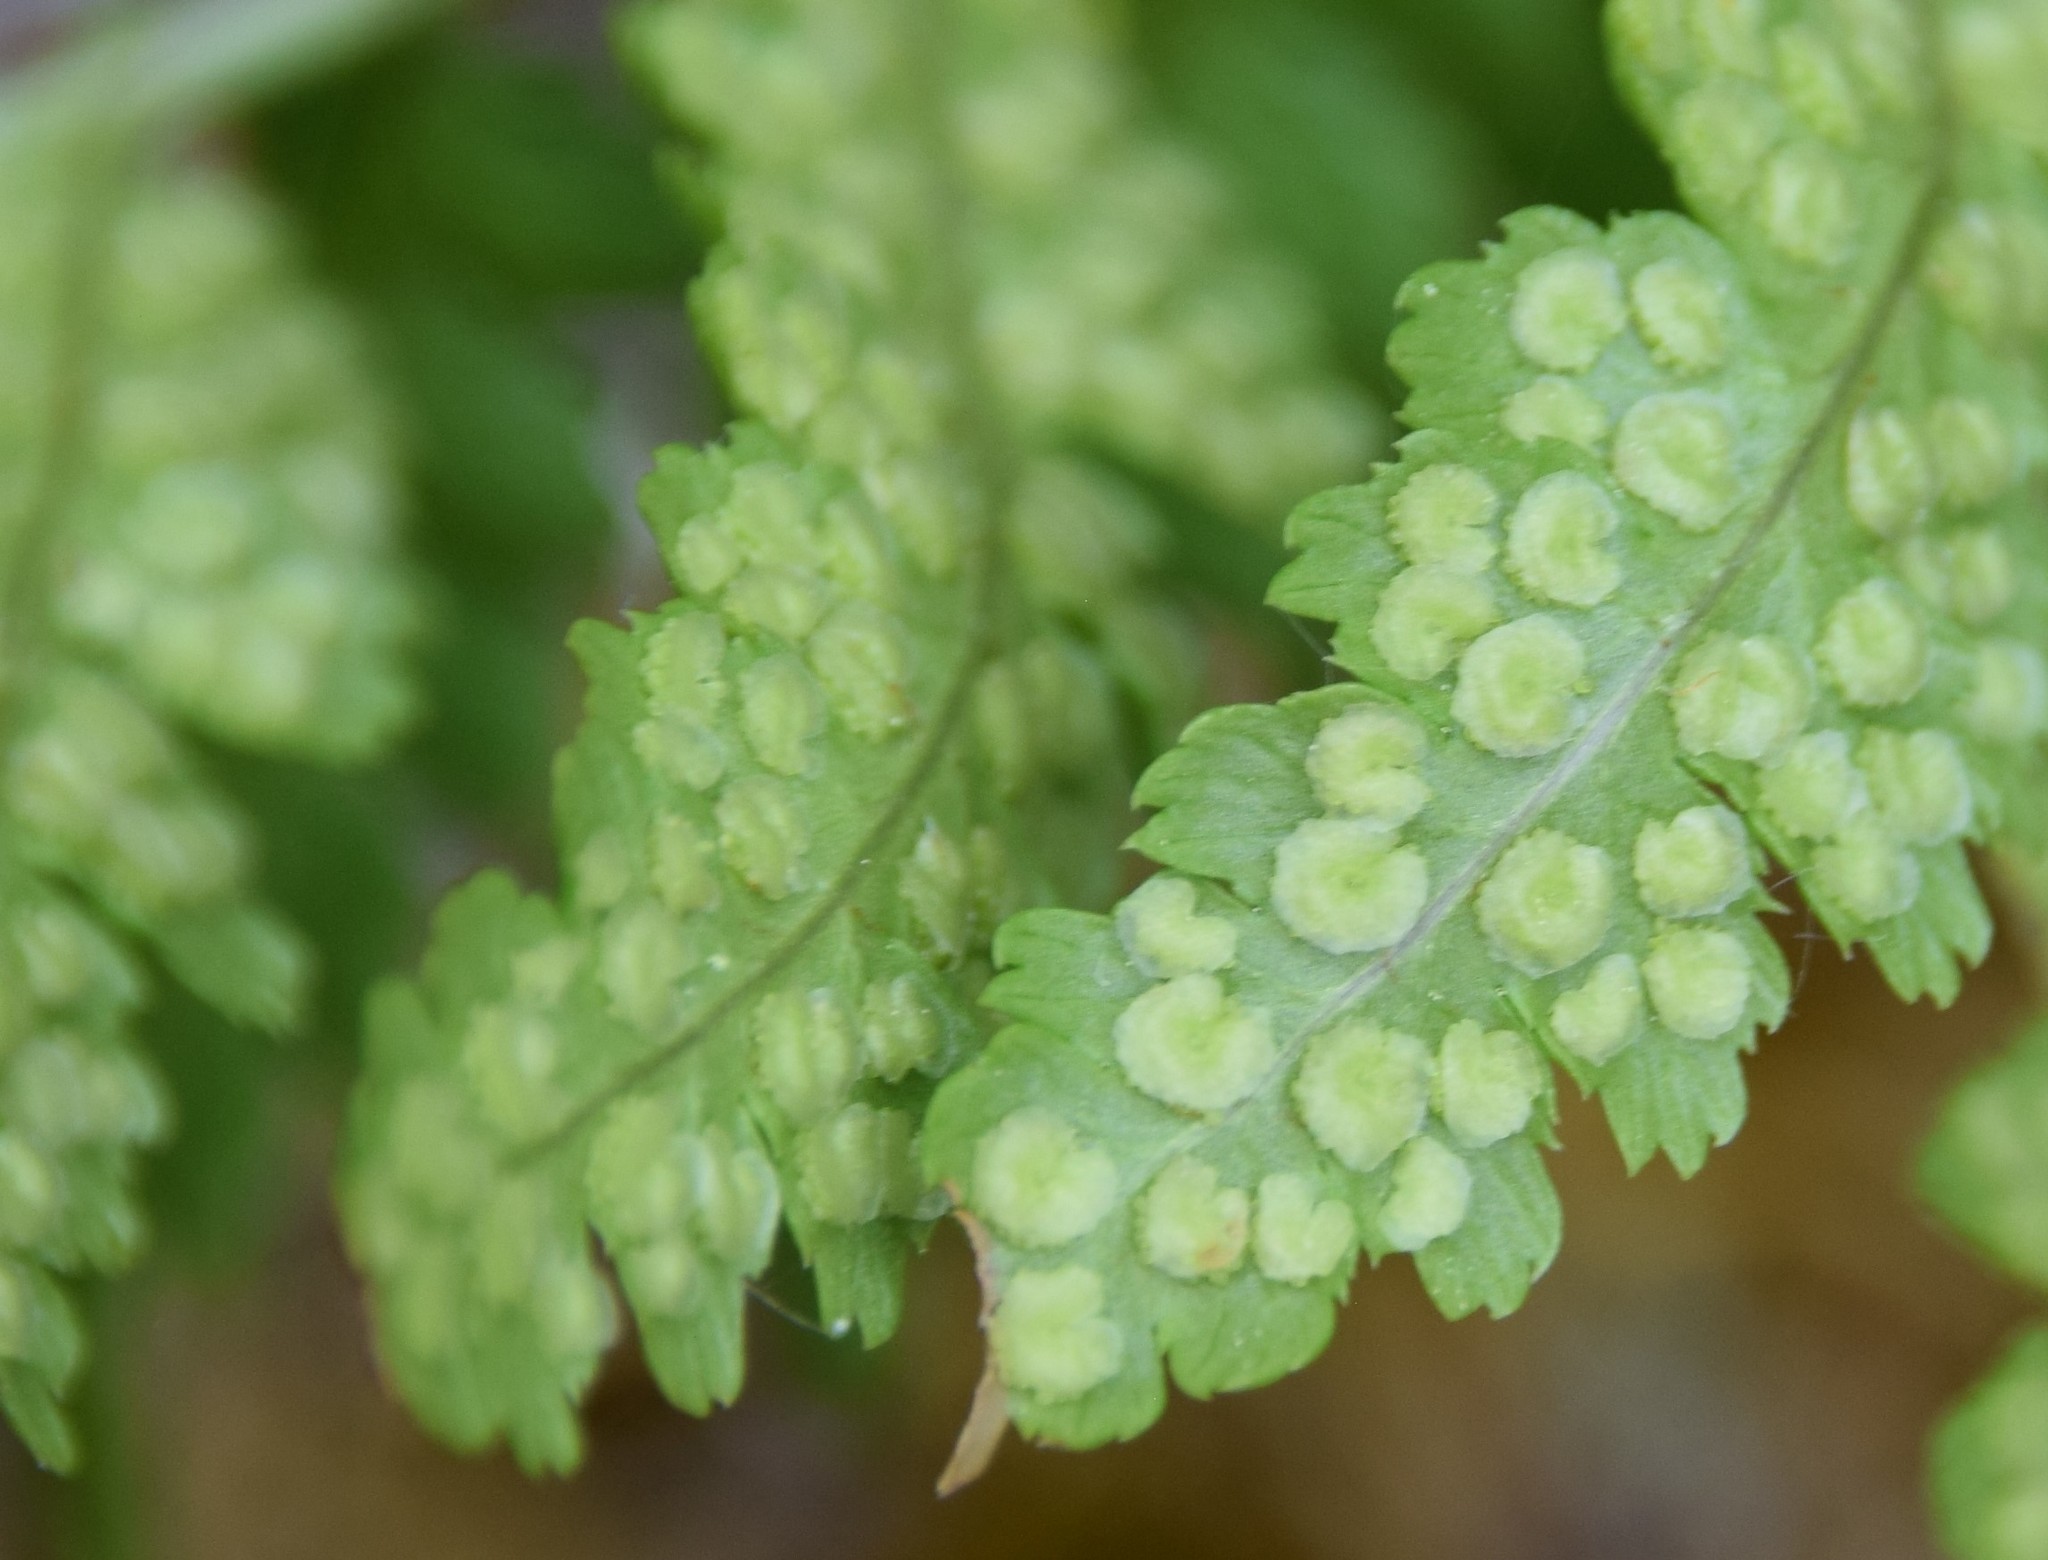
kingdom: Plantae
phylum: Tracheophyta
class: Polypodiopsida
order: Polypodiales
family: Dryopteridaceae
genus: Dryopteris
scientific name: Dryopteris cristata
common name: Crested wood fern
